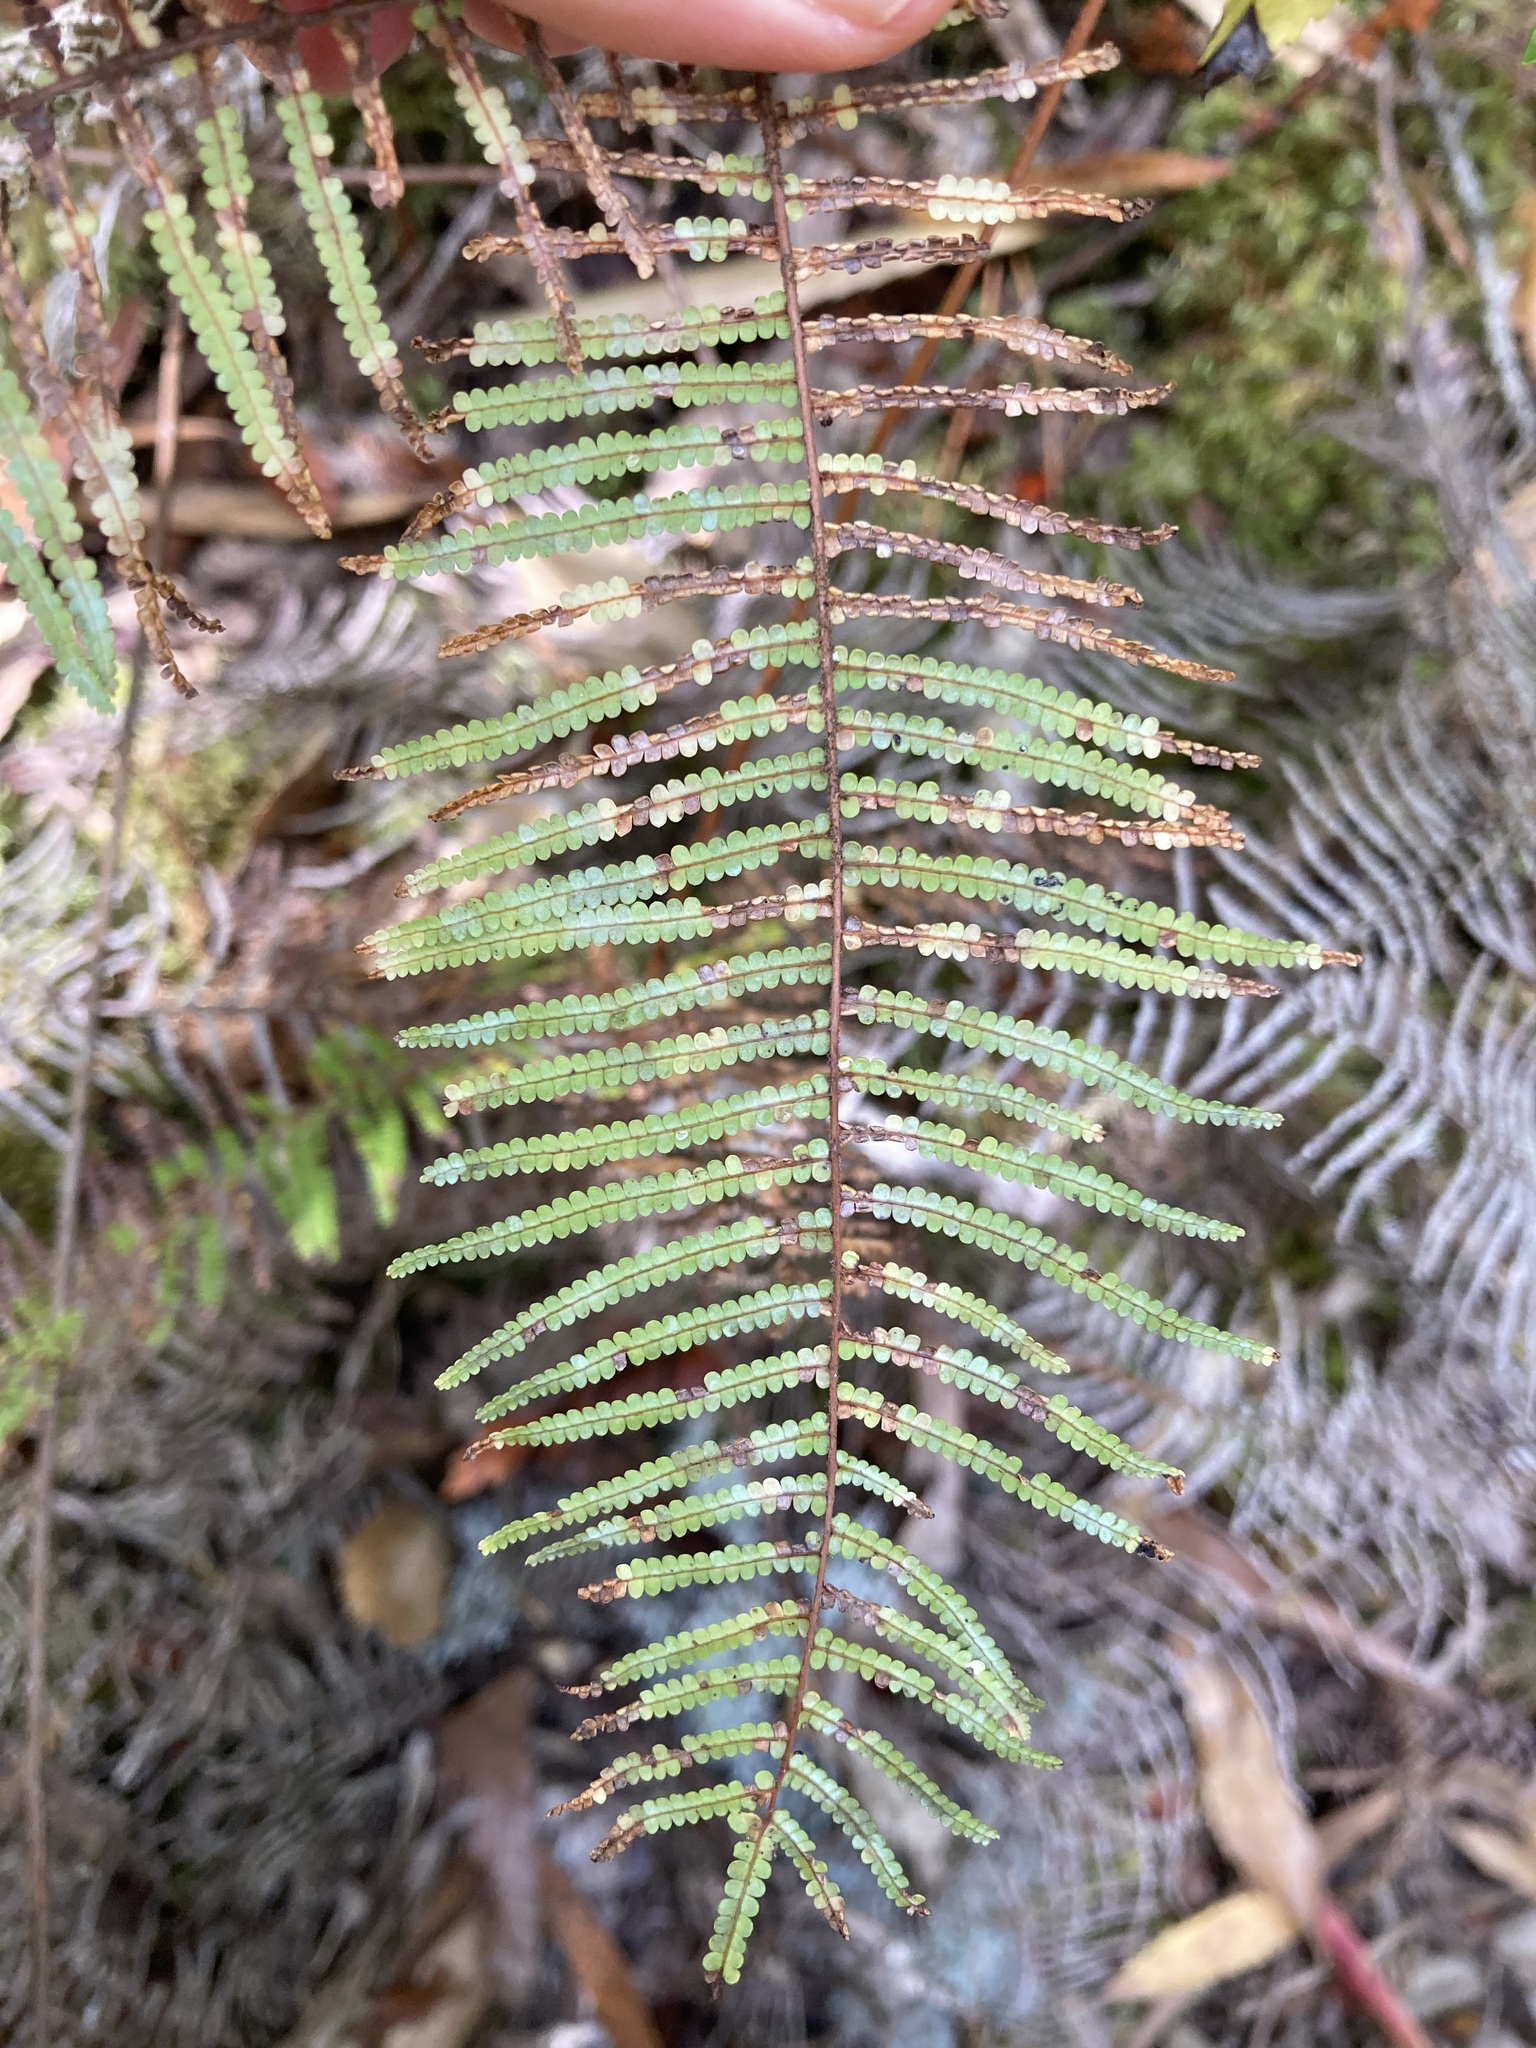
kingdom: Plantae
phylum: Tracheophyta
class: Polypodiopsida
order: Gleicheniales
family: Gleicheniaceae
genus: Gleichenia
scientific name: Gleichenia dicarpa
